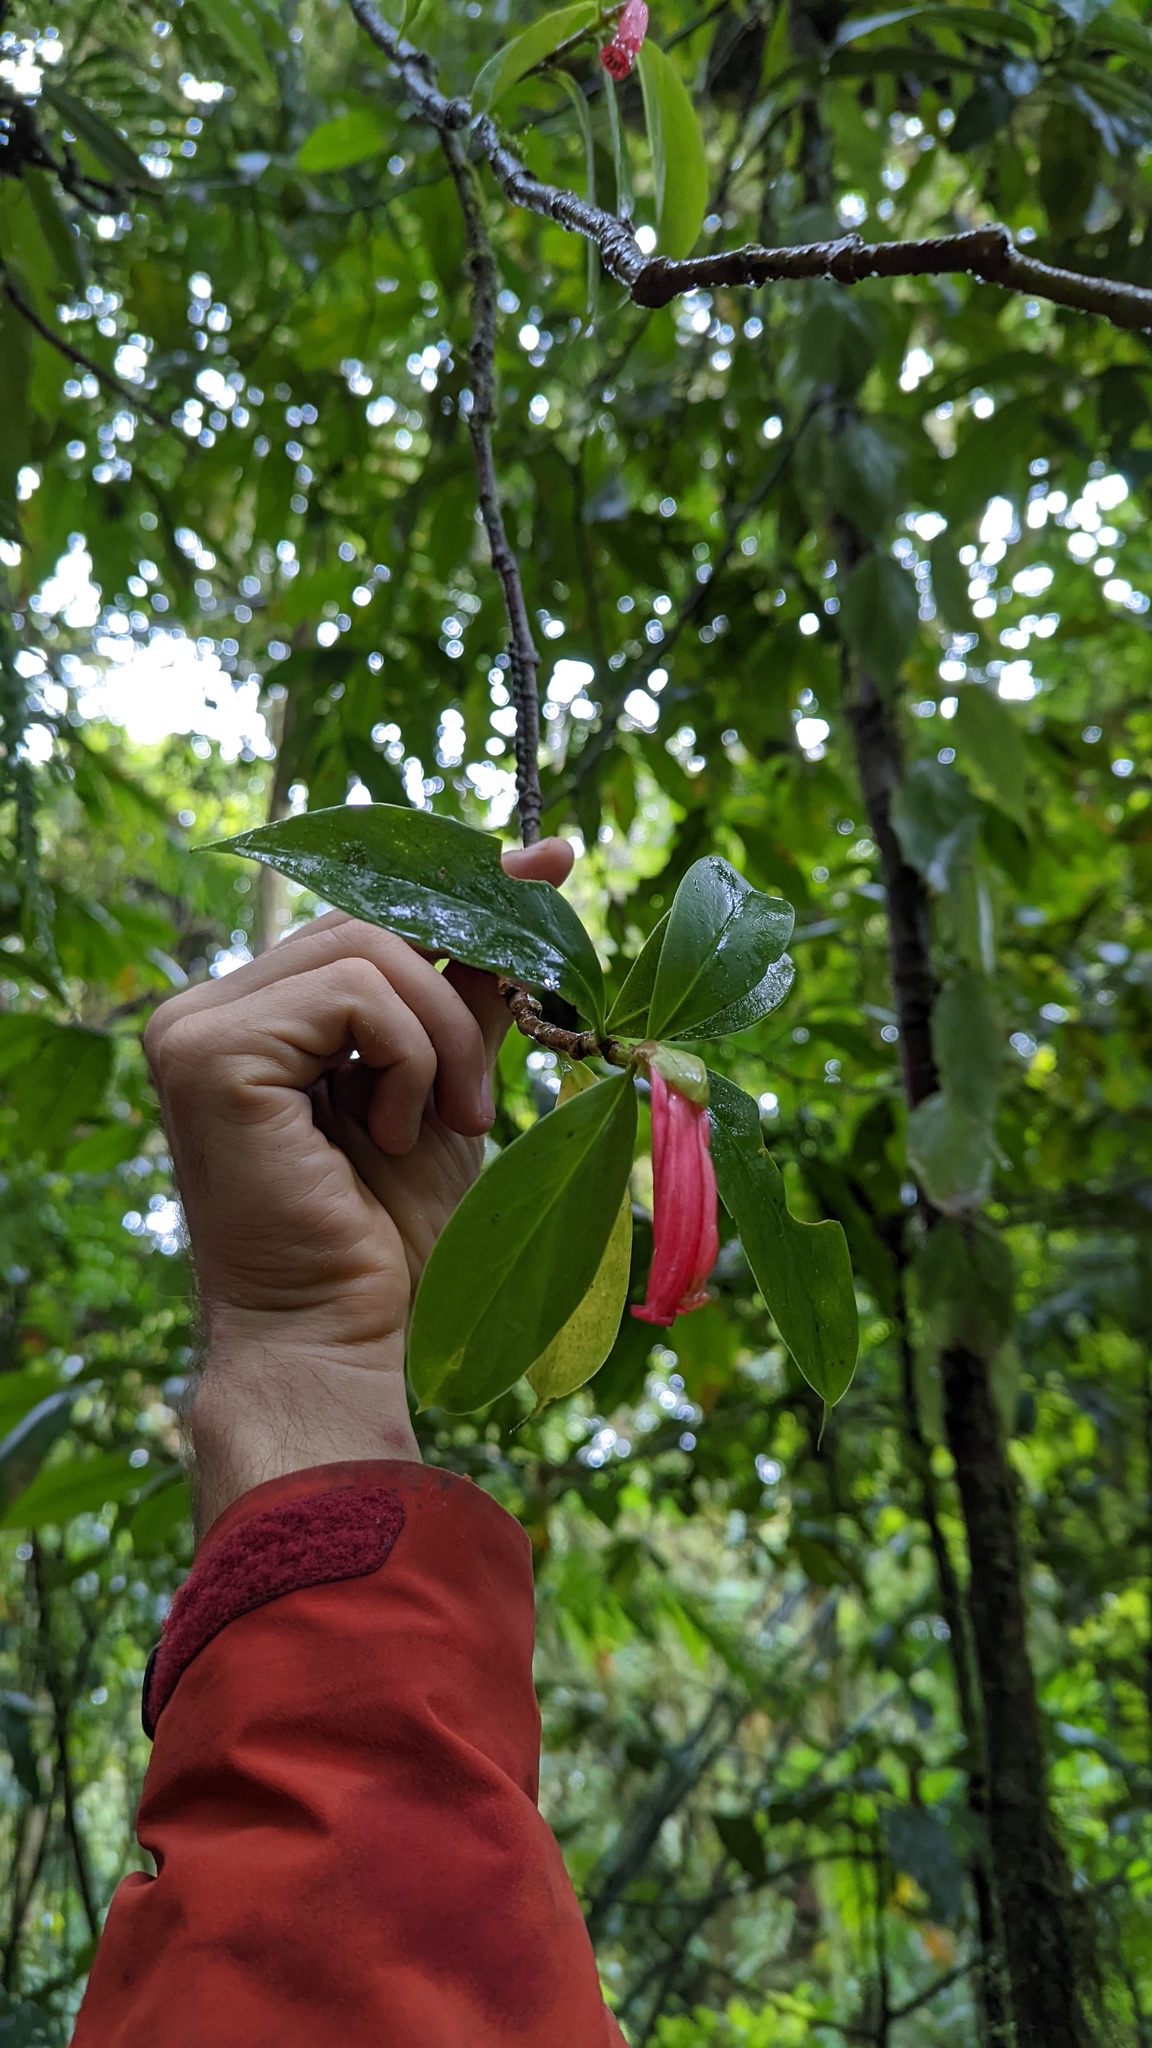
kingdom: Plantae
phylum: Tracheophyta
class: Magnoliopsida
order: Gentianales
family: Rubiaceae
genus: Hillia
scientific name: Hillia triflora
